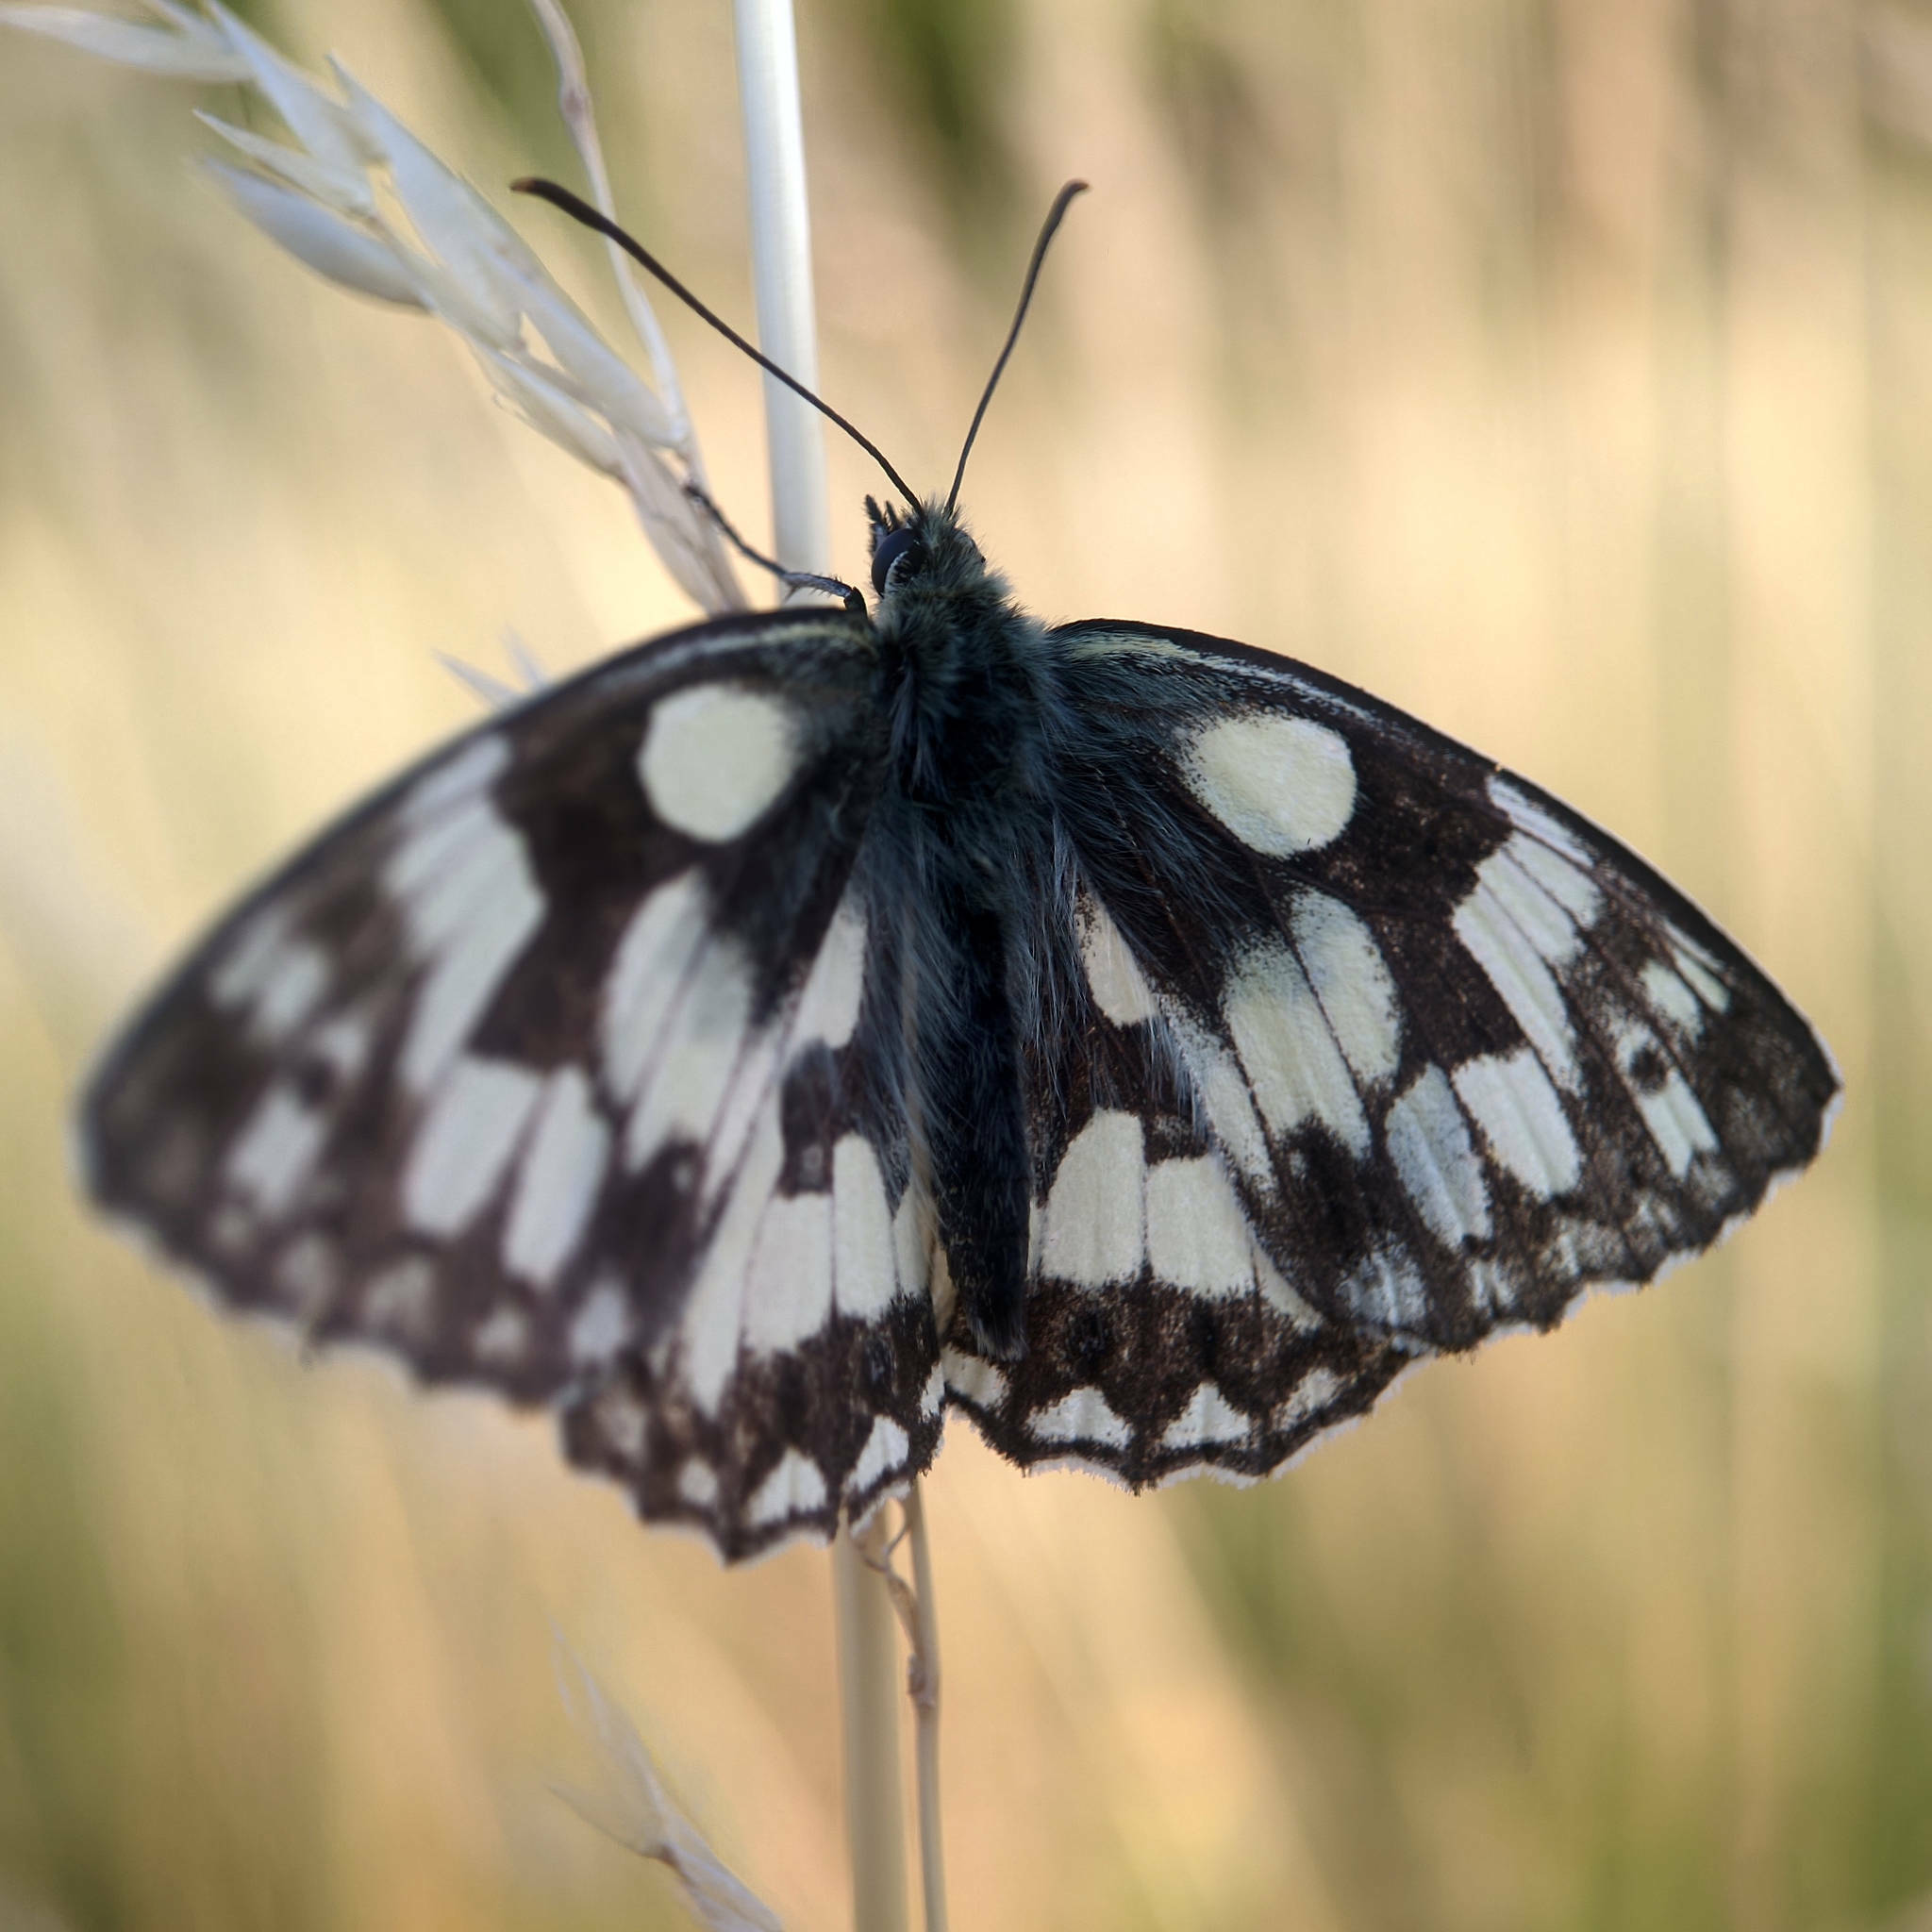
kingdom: Animalia
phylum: Arthropoda
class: Insecta
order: Lepidoptera
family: Nymphalidae
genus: Melanargia
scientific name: Melanargia galathea
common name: Marbled white
